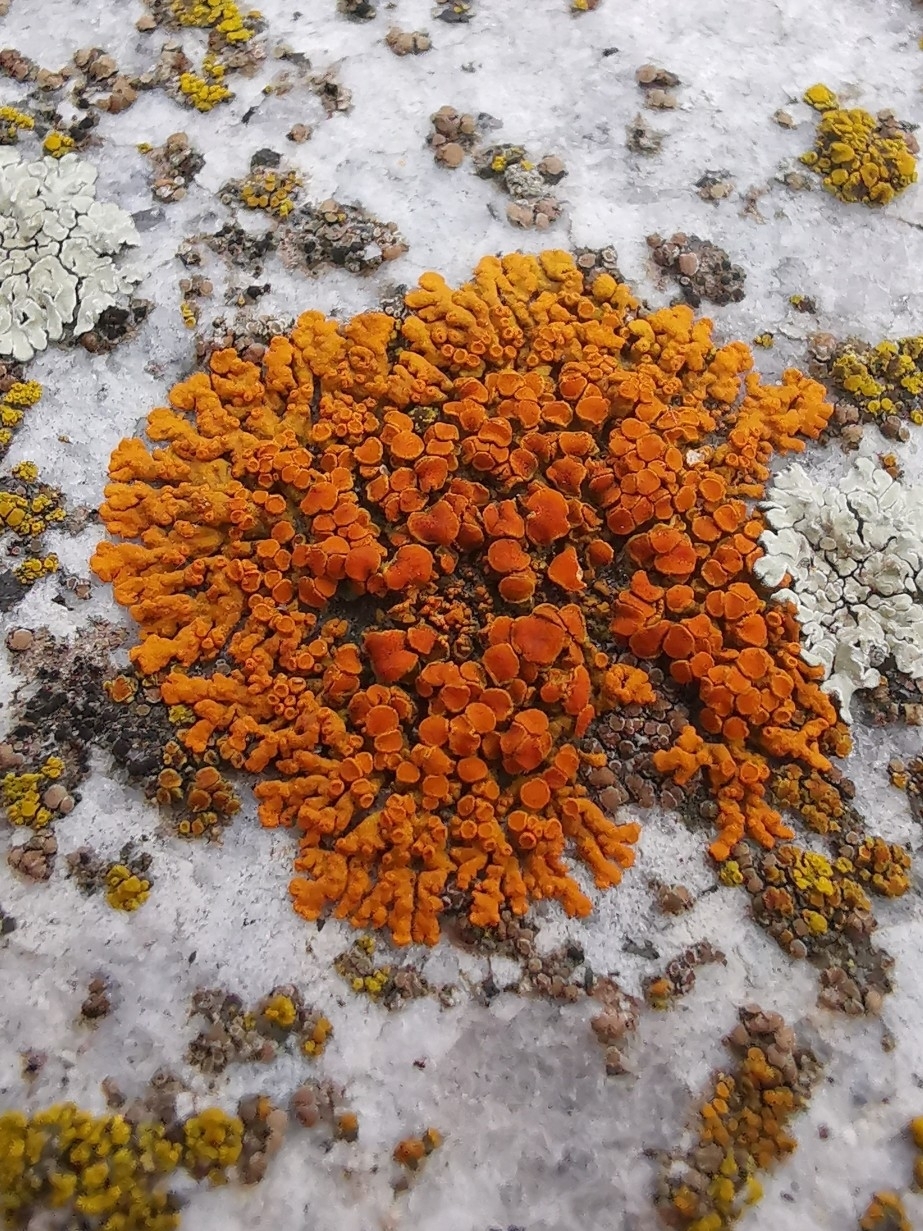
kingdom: Fungi
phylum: Ascomycota
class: Lecanoromycetes
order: Teloschistales
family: Teloschistaceae
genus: Xanthoria
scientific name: Xanthoria elegans
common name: Elegant sunburst lichen
